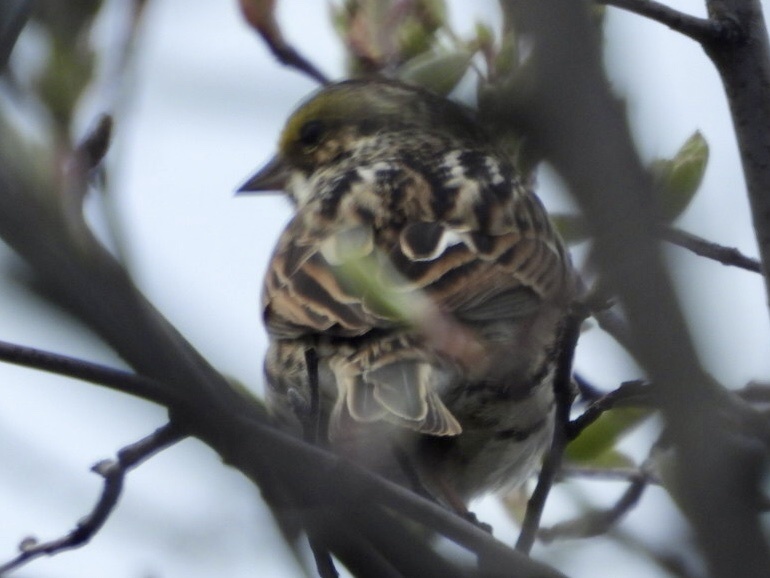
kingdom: Animalia
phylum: Chordata
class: Aves
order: Passeriformes
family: Passerellidae
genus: Passerculus
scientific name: Passerculus sandwichensis
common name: Savannah sparrow
